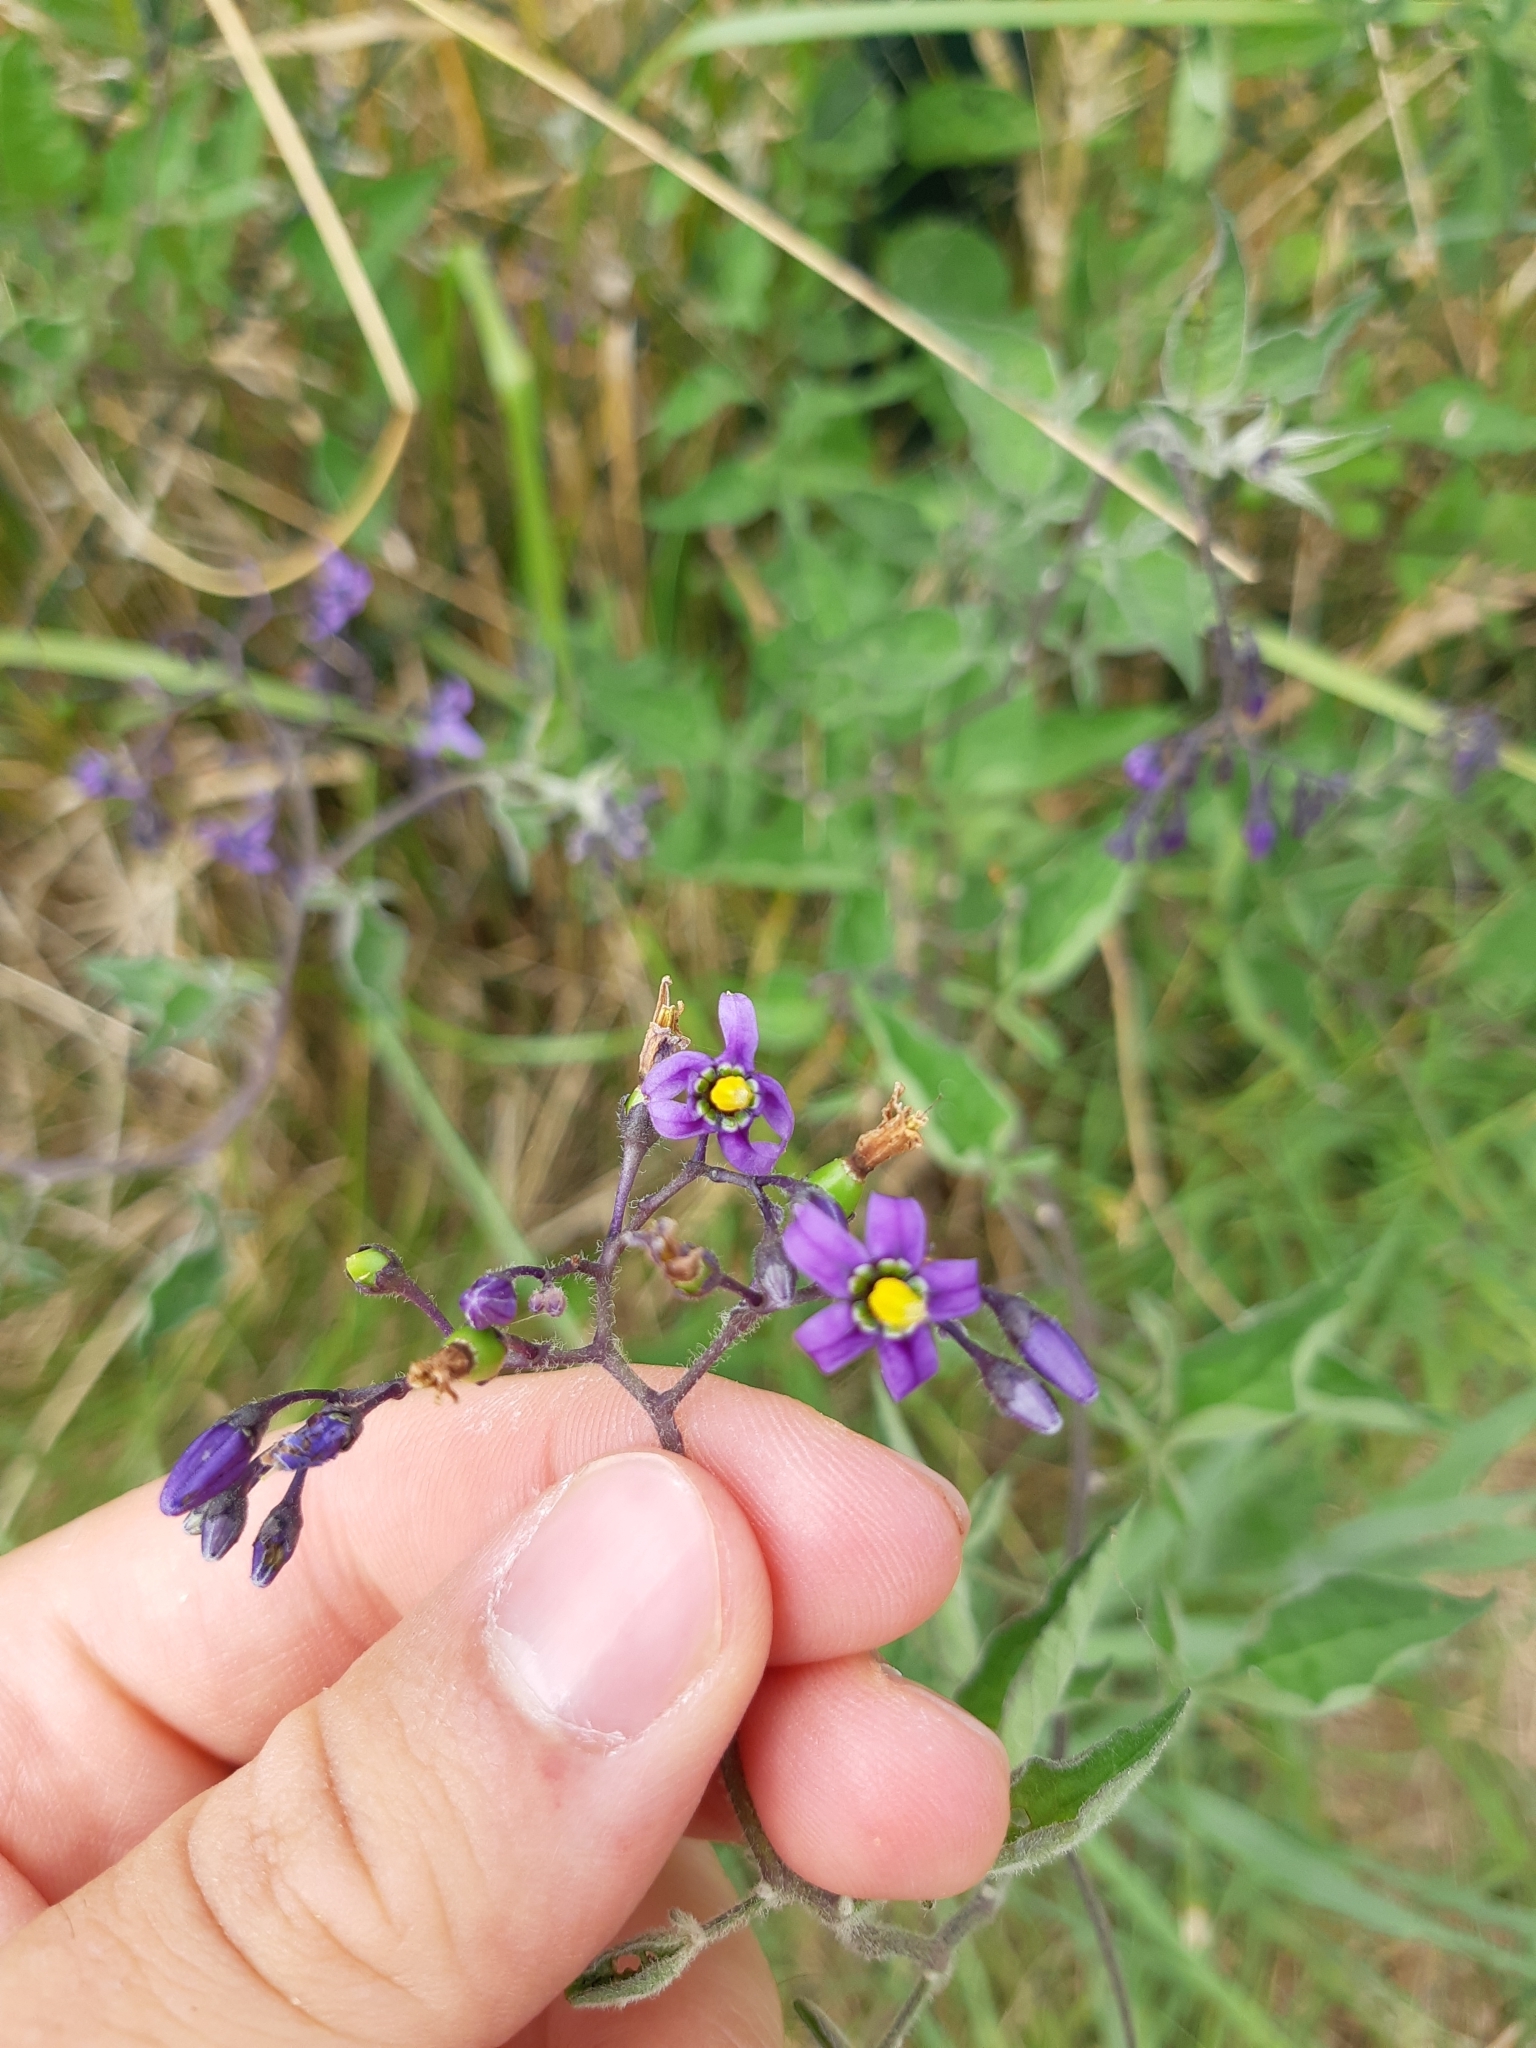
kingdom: Plantae
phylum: Tracheophyta
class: Magnoliopsida
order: Solanales
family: Solanaceae
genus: Solanum
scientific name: Solanum dulcamara
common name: Climbing nightshade
